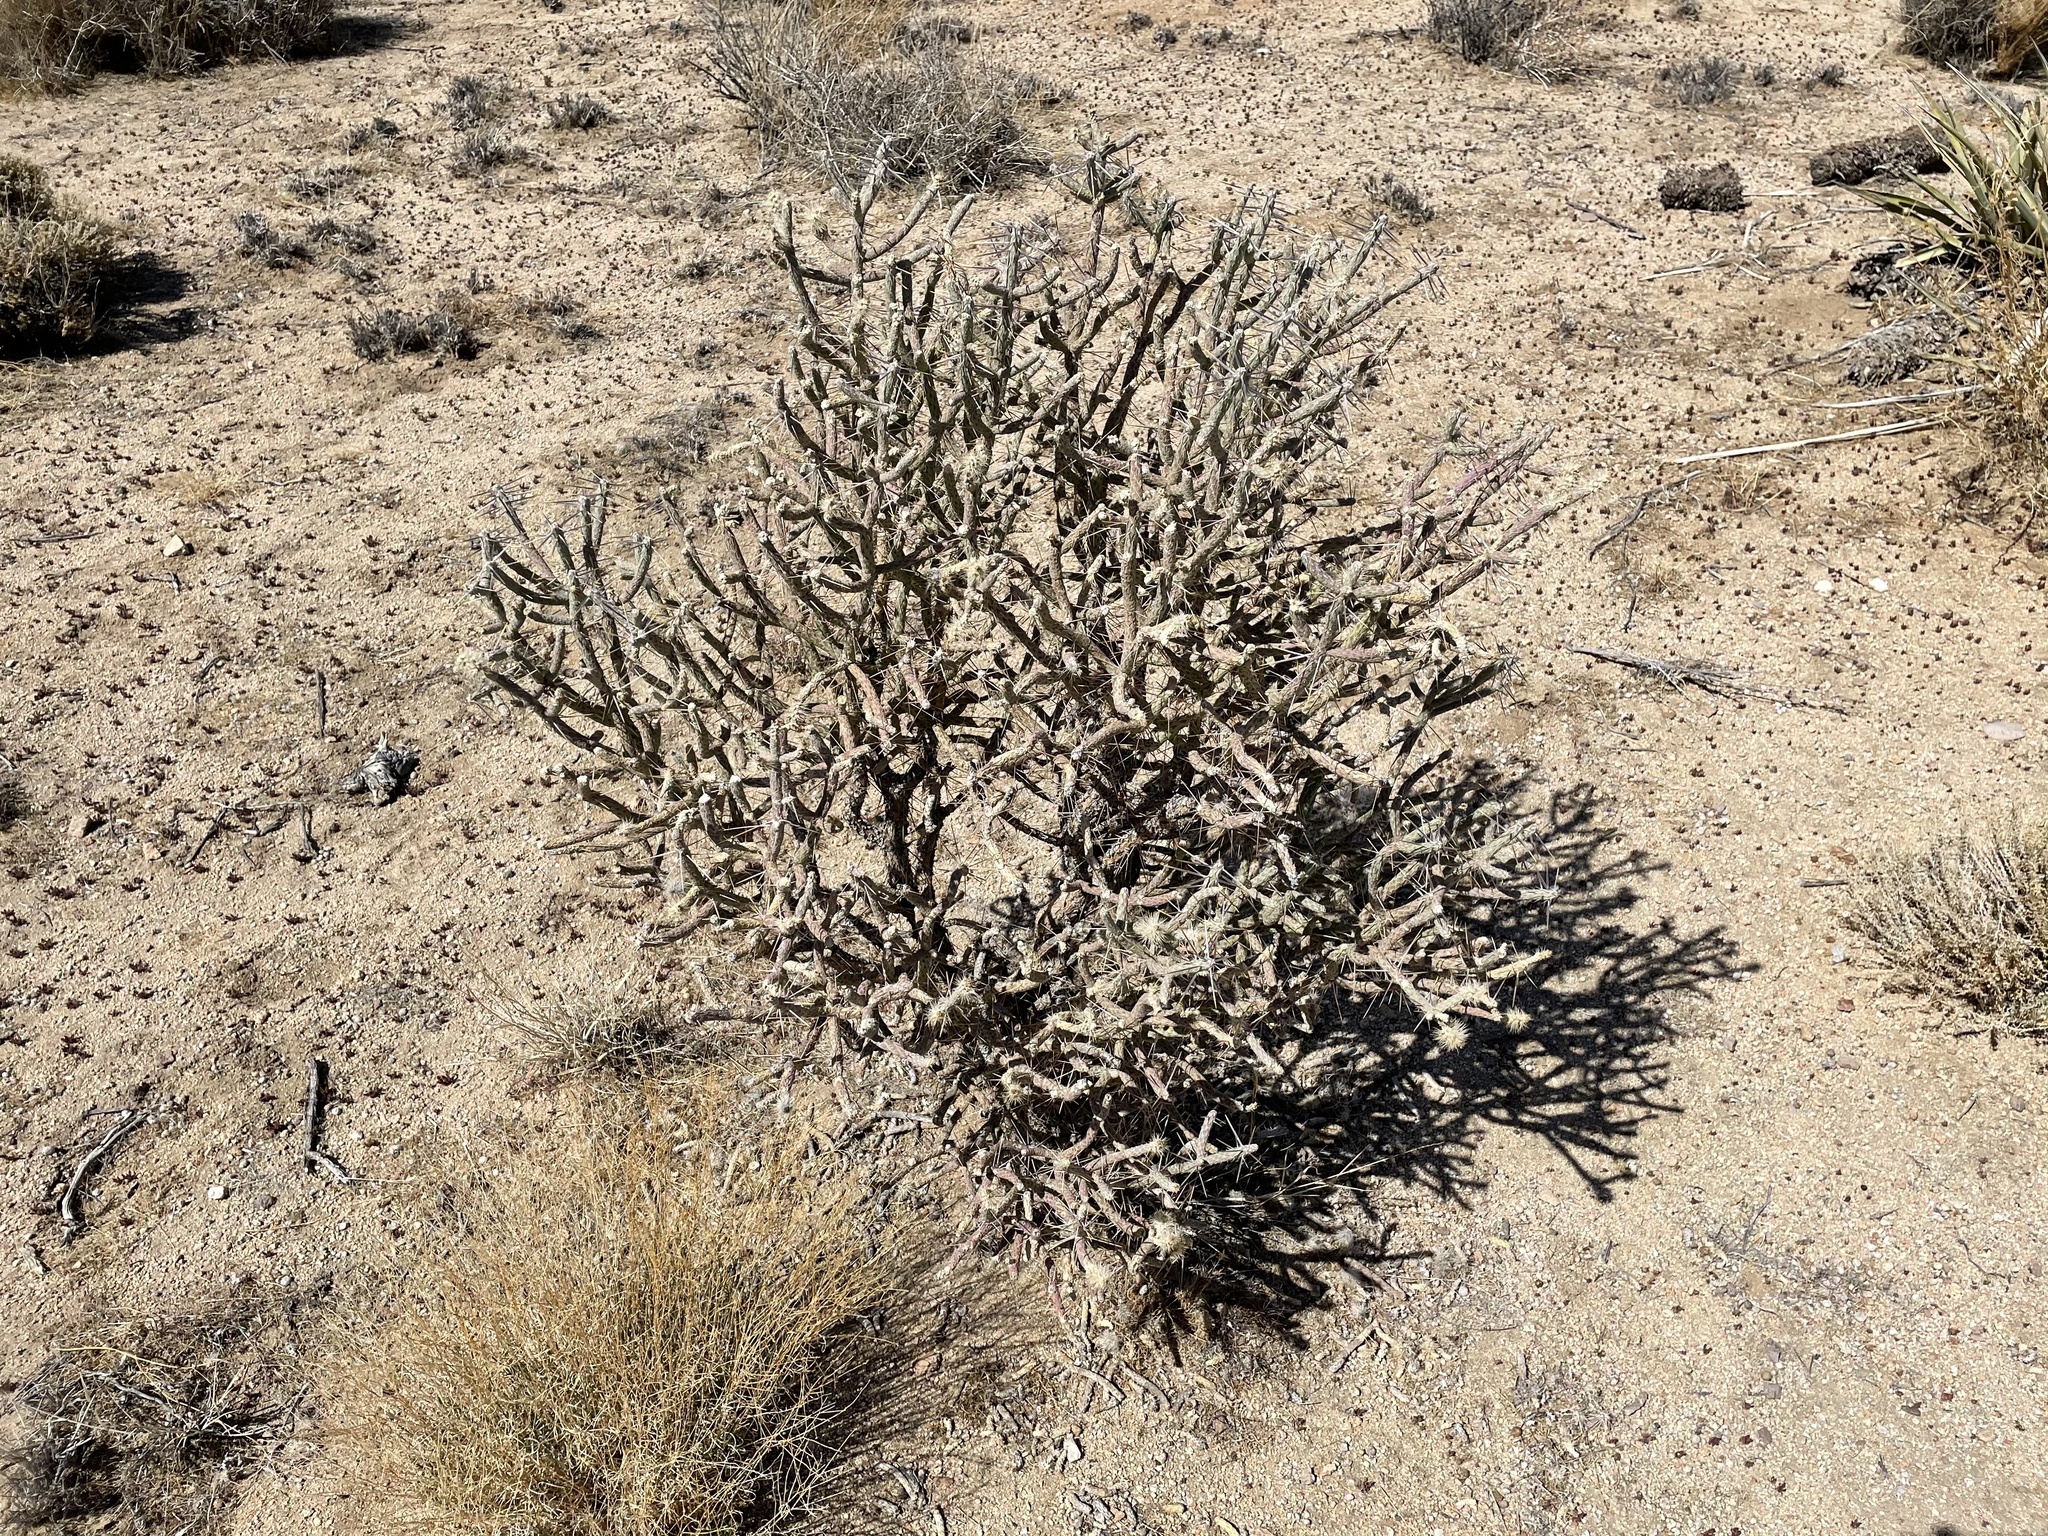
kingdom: Plantae
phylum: Tracheophyta
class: Magnoliopsida
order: Caryophyllales
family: Cactaceae
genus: Cylindropuntia
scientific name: Cylindropuntia ramosissima
